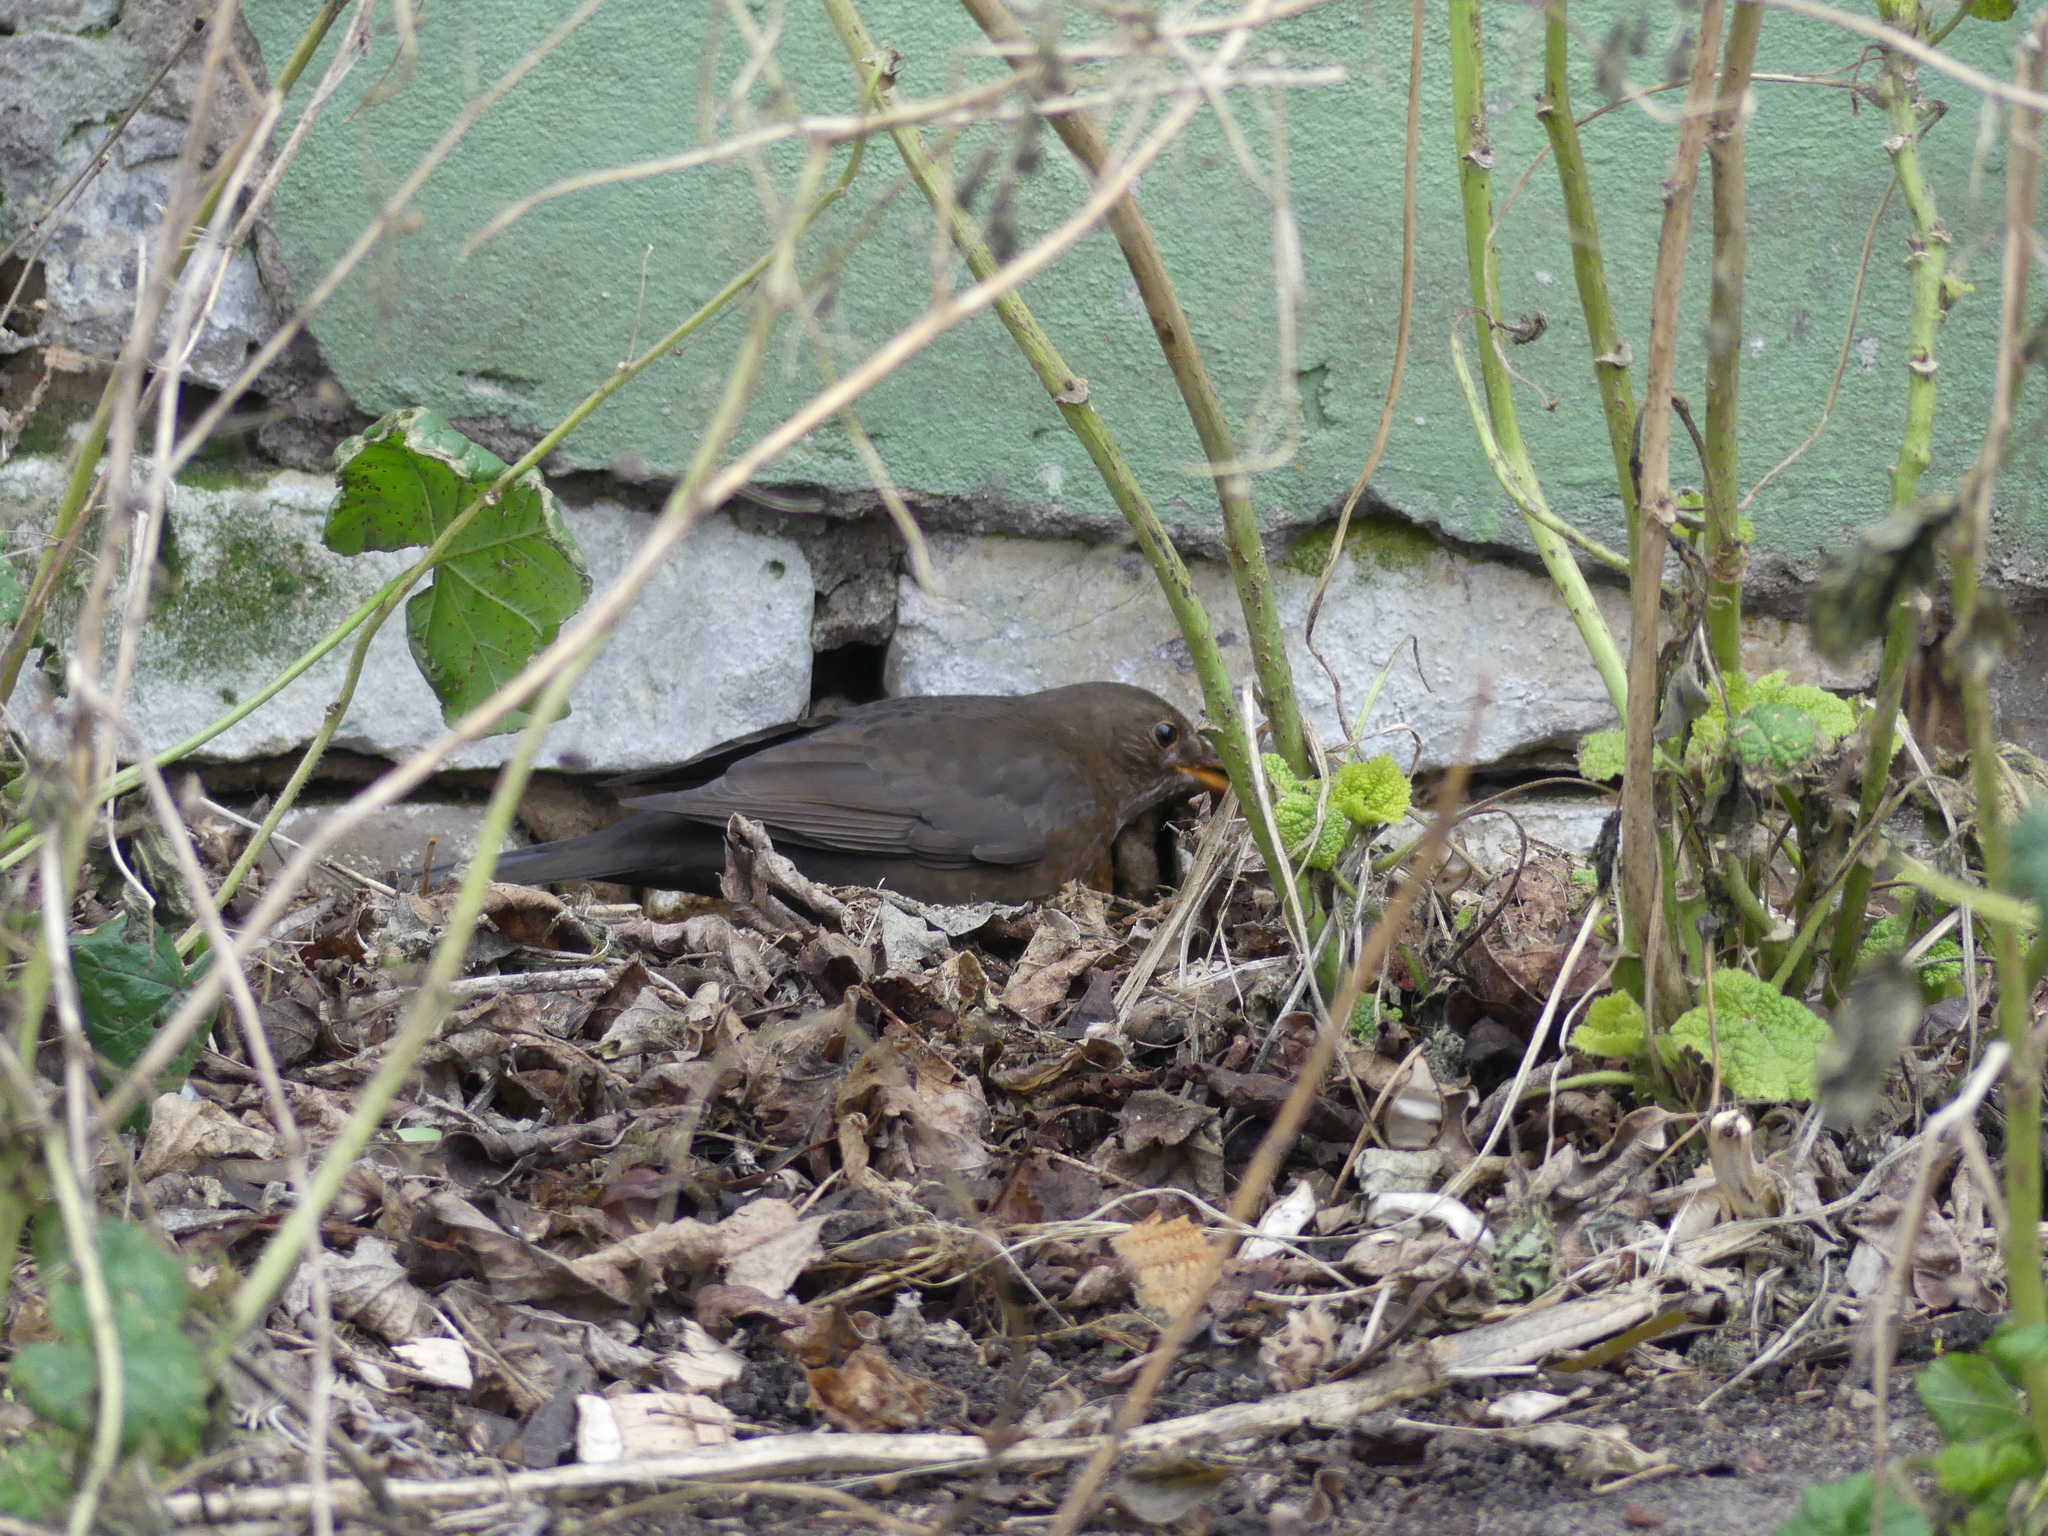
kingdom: Animalia
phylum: Chordata
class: Aves
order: Passeriformes
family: Turdidae
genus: Turdus
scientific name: Turdus merula
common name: Common blackbird
